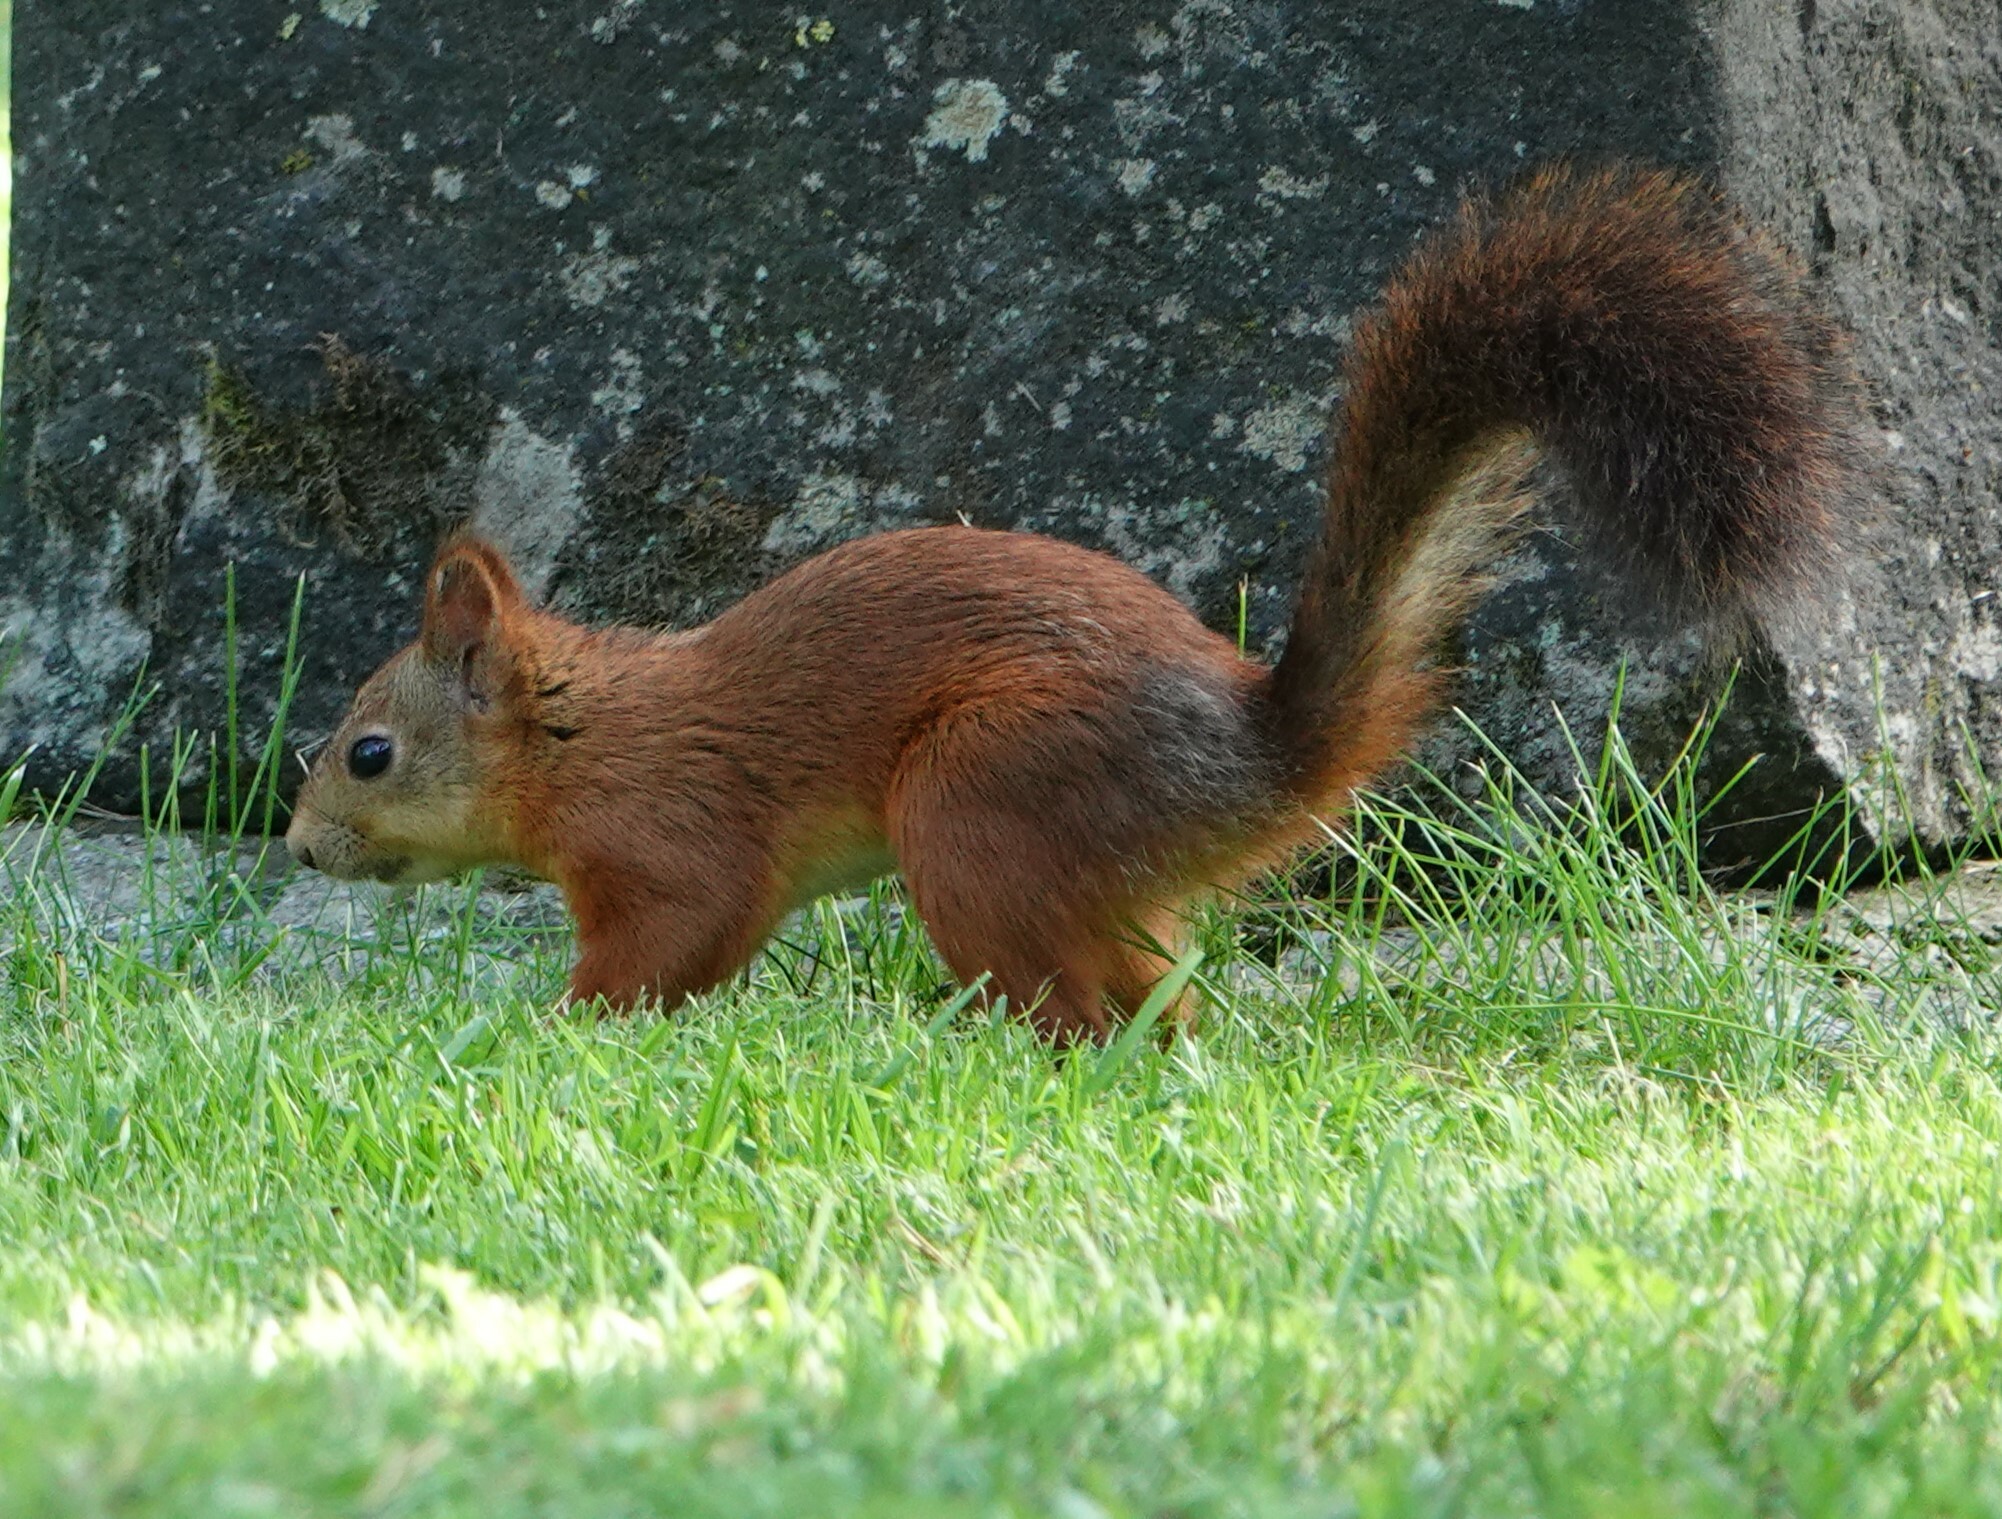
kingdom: Animalia
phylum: Chordata
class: Mammalia
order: Rodentia
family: Sciuridae
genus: Sciurus
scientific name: Sciurus vulgaris
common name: Eurasian red squirrel
